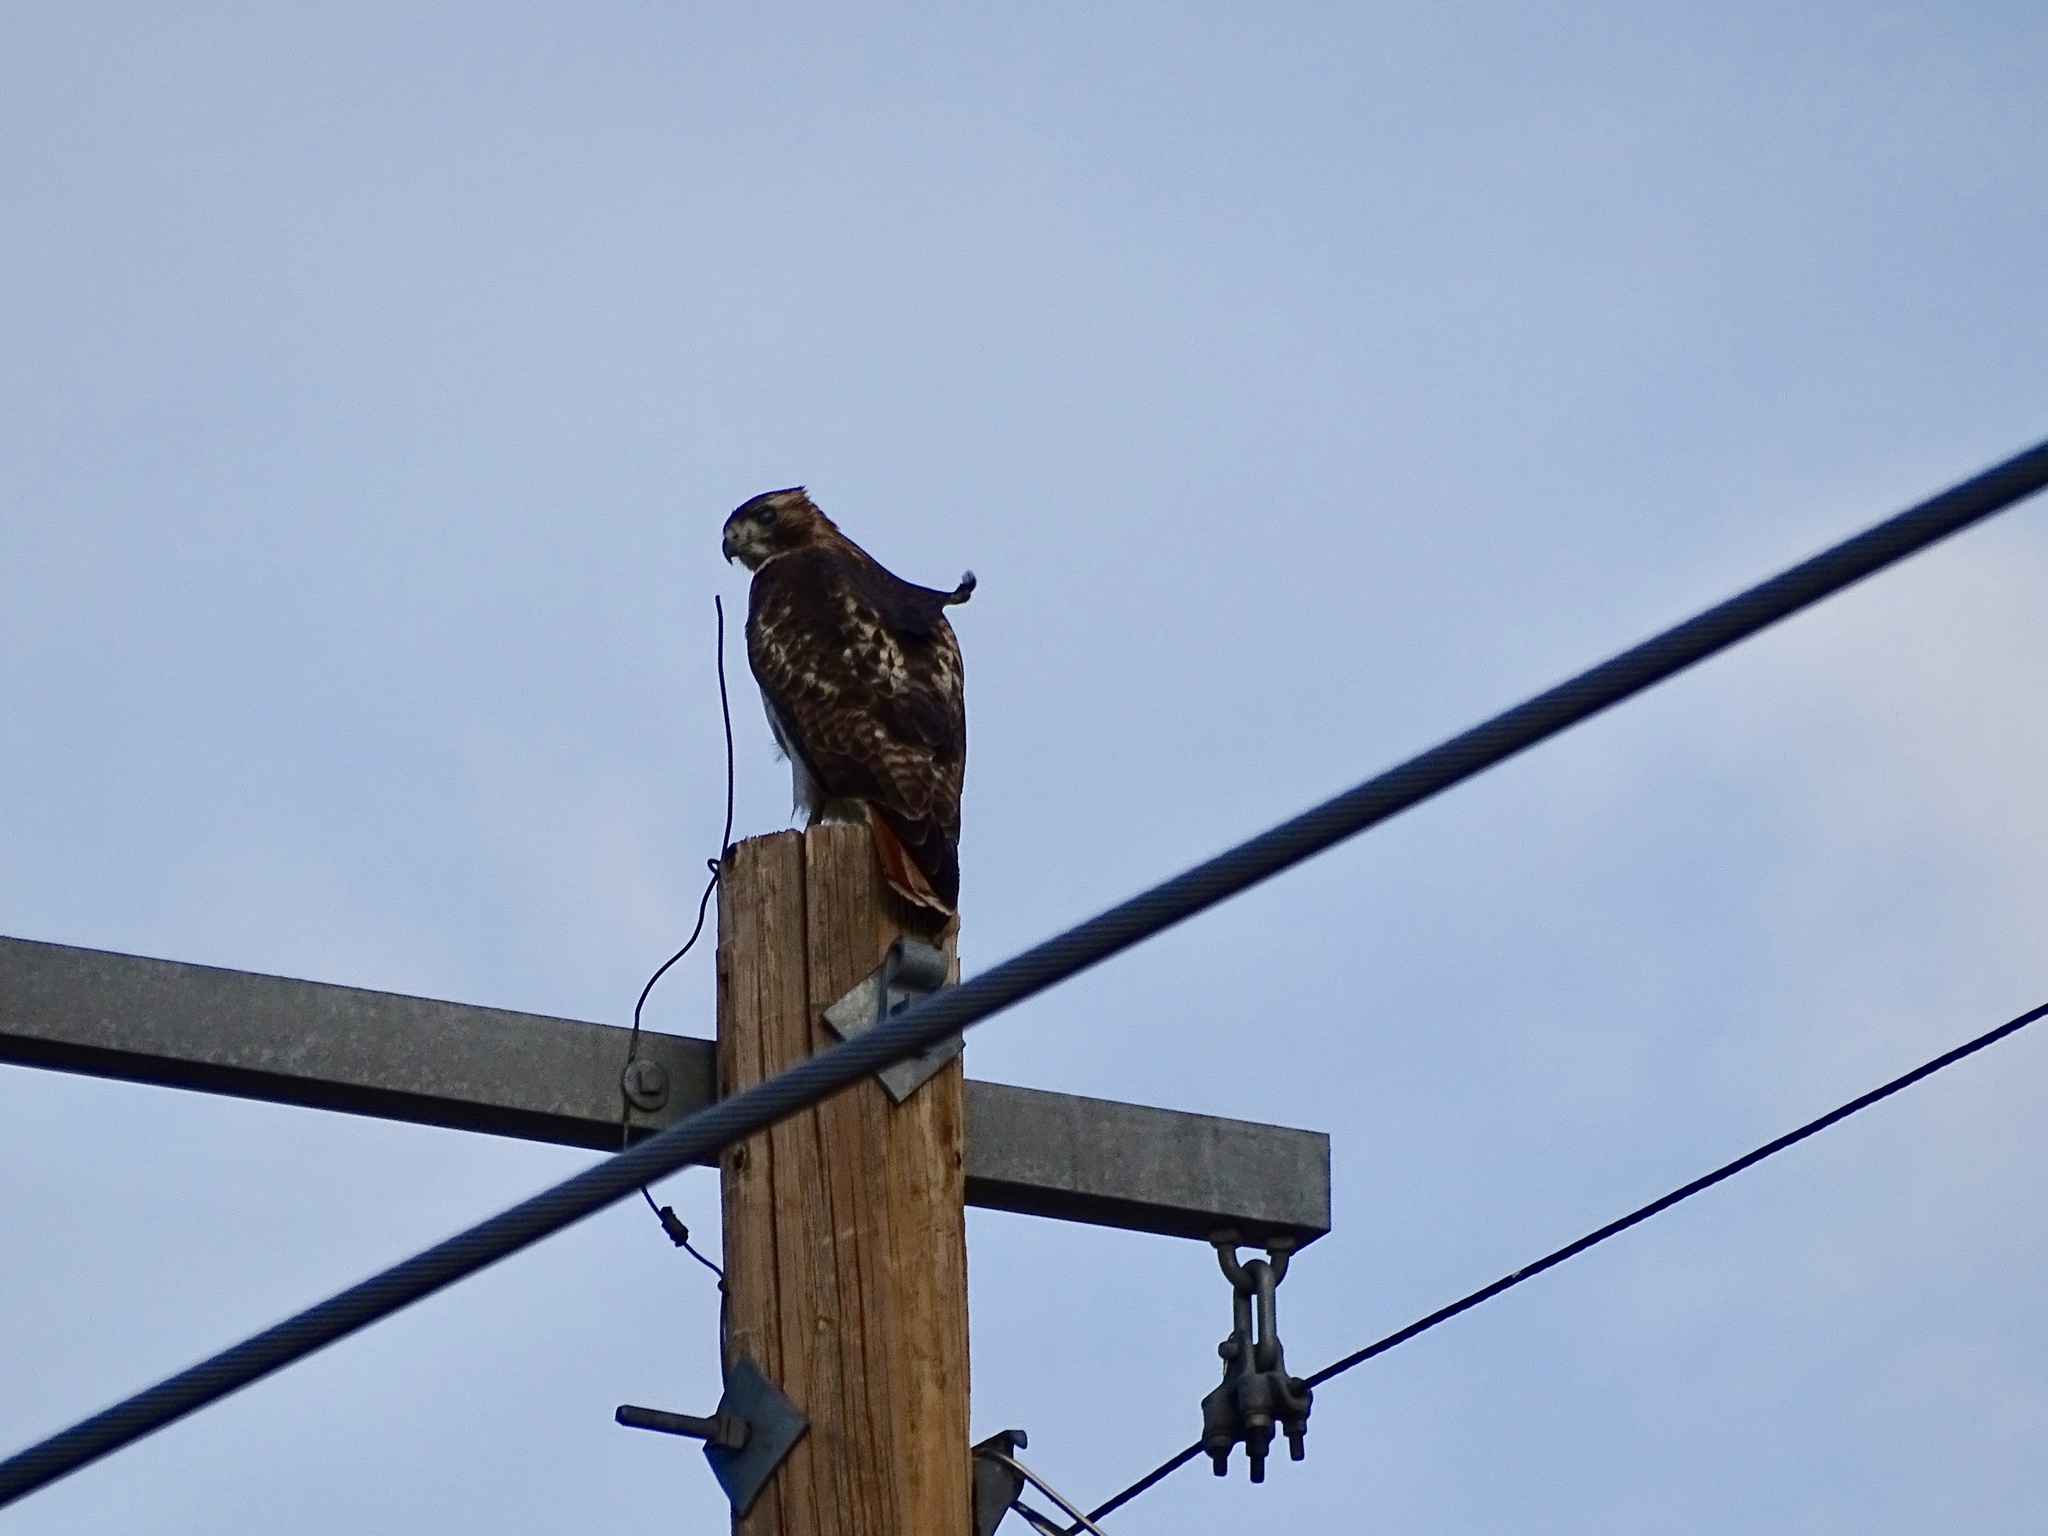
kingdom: Animalia
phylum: Chordata
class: Aves
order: Accipitriformes
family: Accipitridae
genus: Buteo
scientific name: Buteo jamaicensis
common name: Red-tailed hawk
